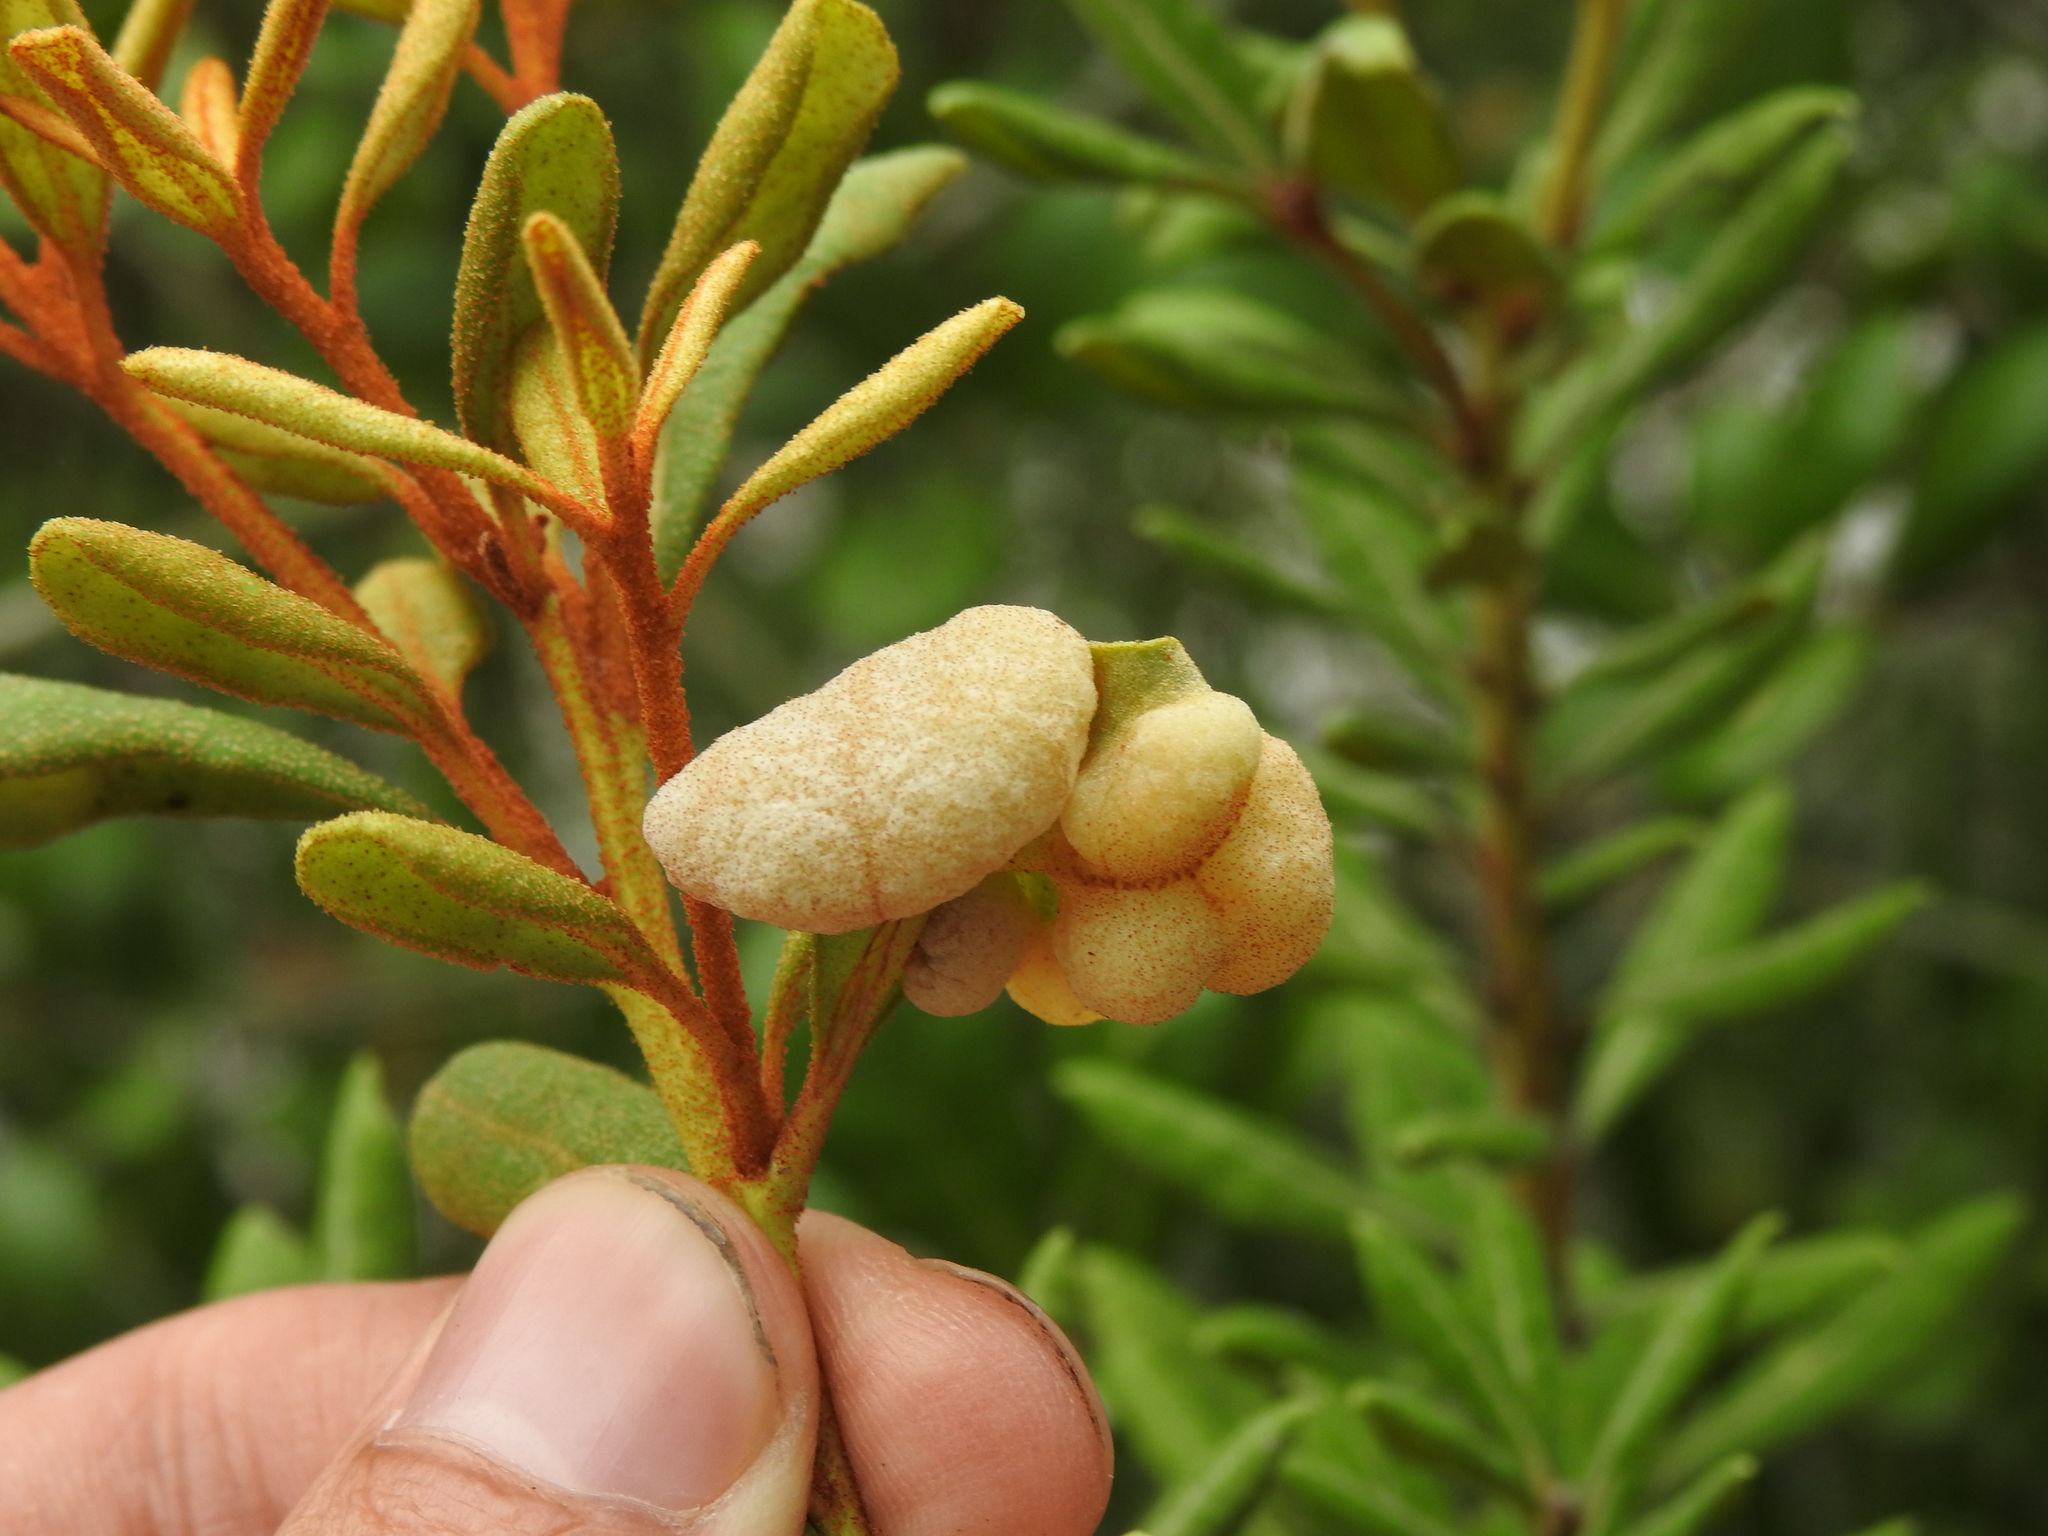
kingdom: Fungi
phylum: Basidiomycota
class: Exobasidiomycetes
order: Exobasidiales
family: Exobasidiaceae
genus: Exobasidium
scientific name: Exobasidium ferrugineae
